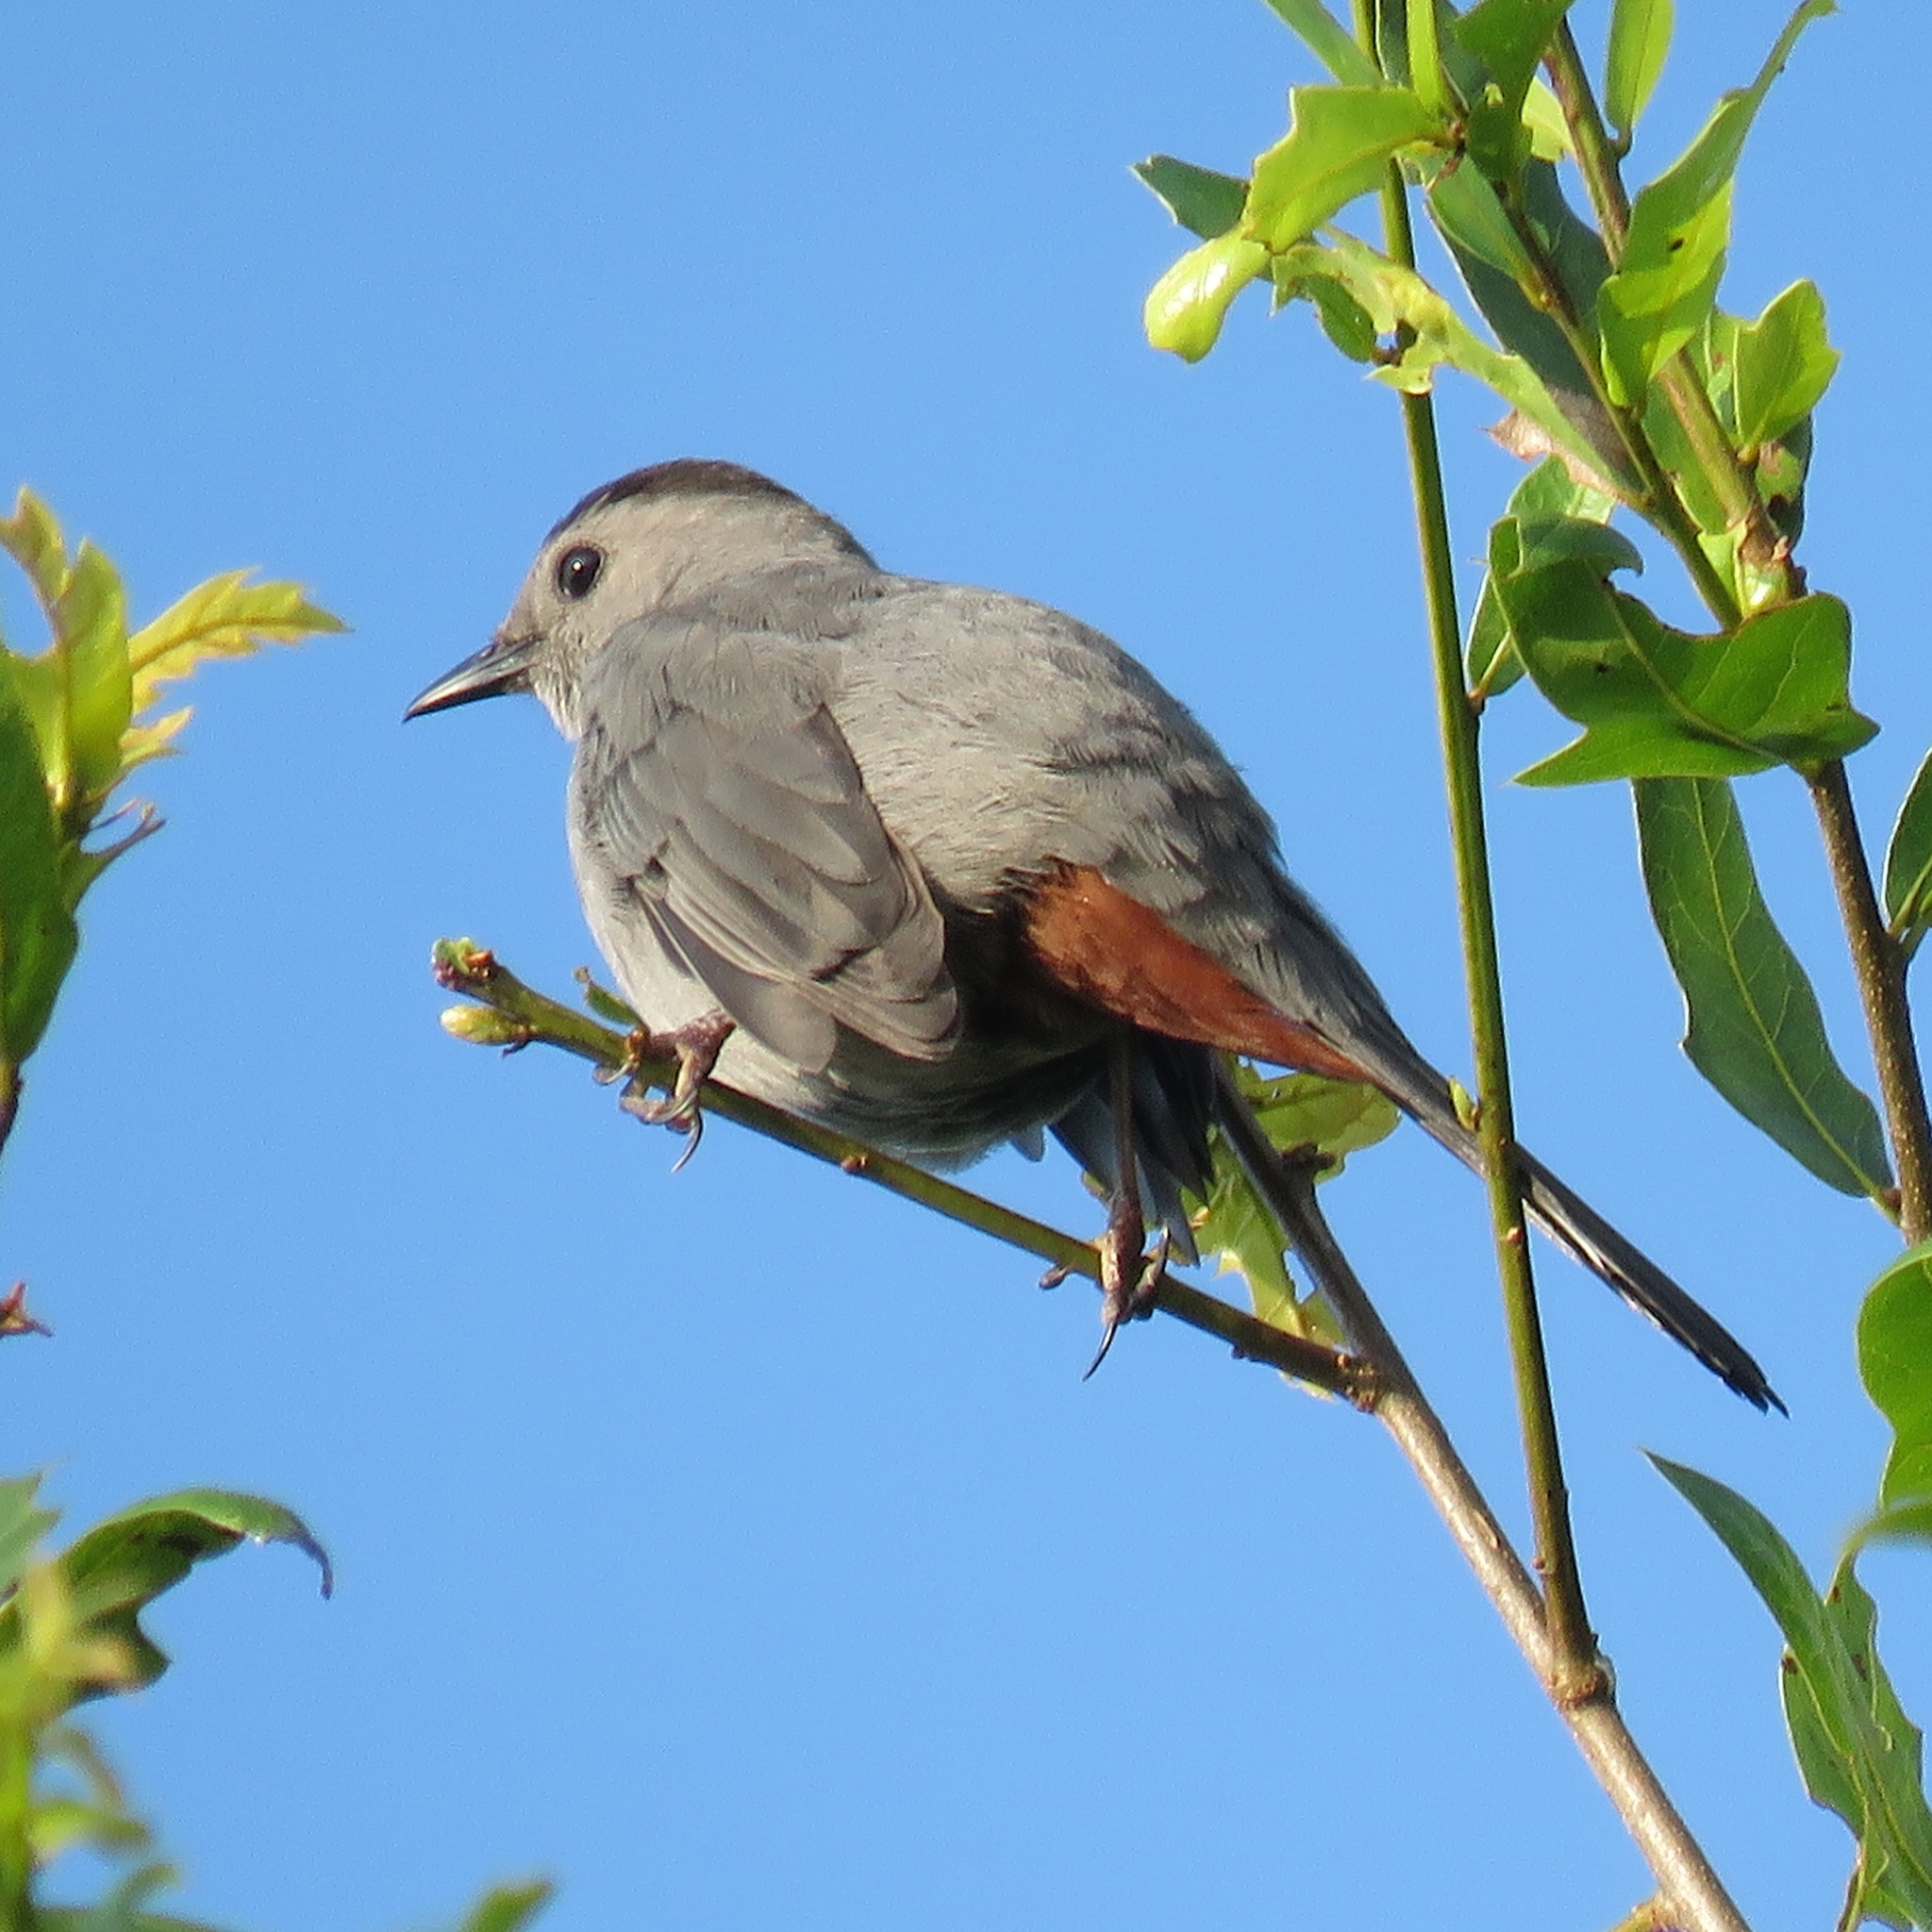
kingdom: Animalia
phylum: Chordata
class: Aves
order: Passeriformes
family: Mimidae
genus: Dumetella
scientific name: Dumetella carolinensis
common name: Gray catbird
